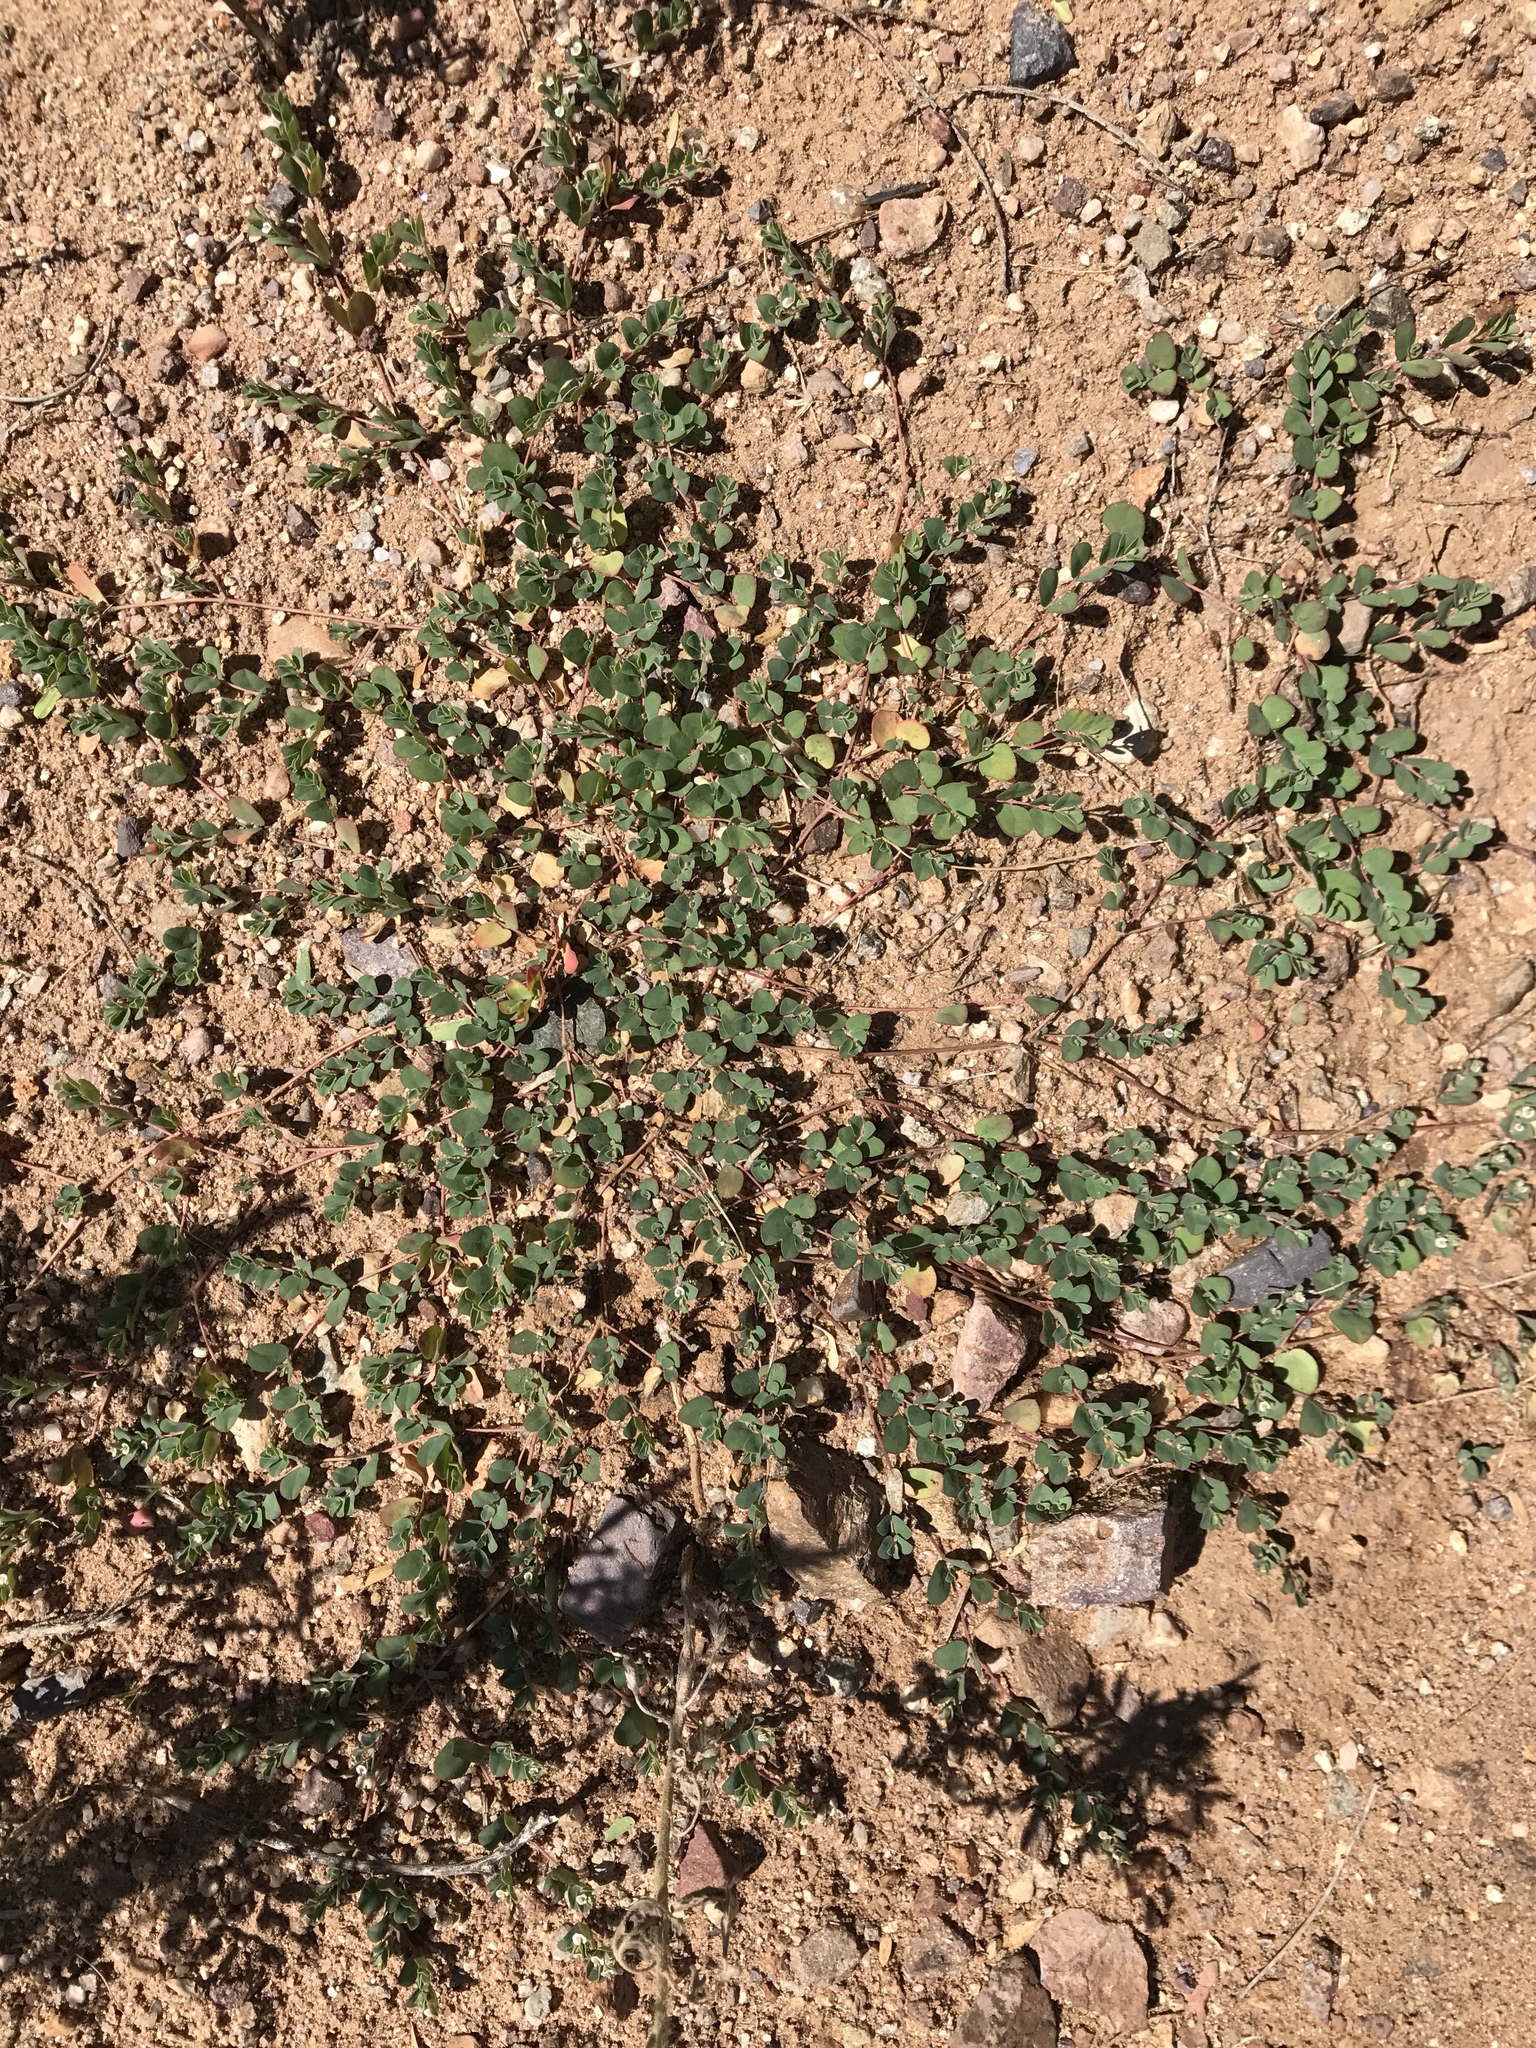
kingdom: Plantae
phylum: Tracheophyta
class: Magnoliopsida
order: Malpighiales
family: Euphorbiaceae
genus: Euphorbia
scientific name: Euphorbia albomarginata
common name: Whitemargin sandmat
